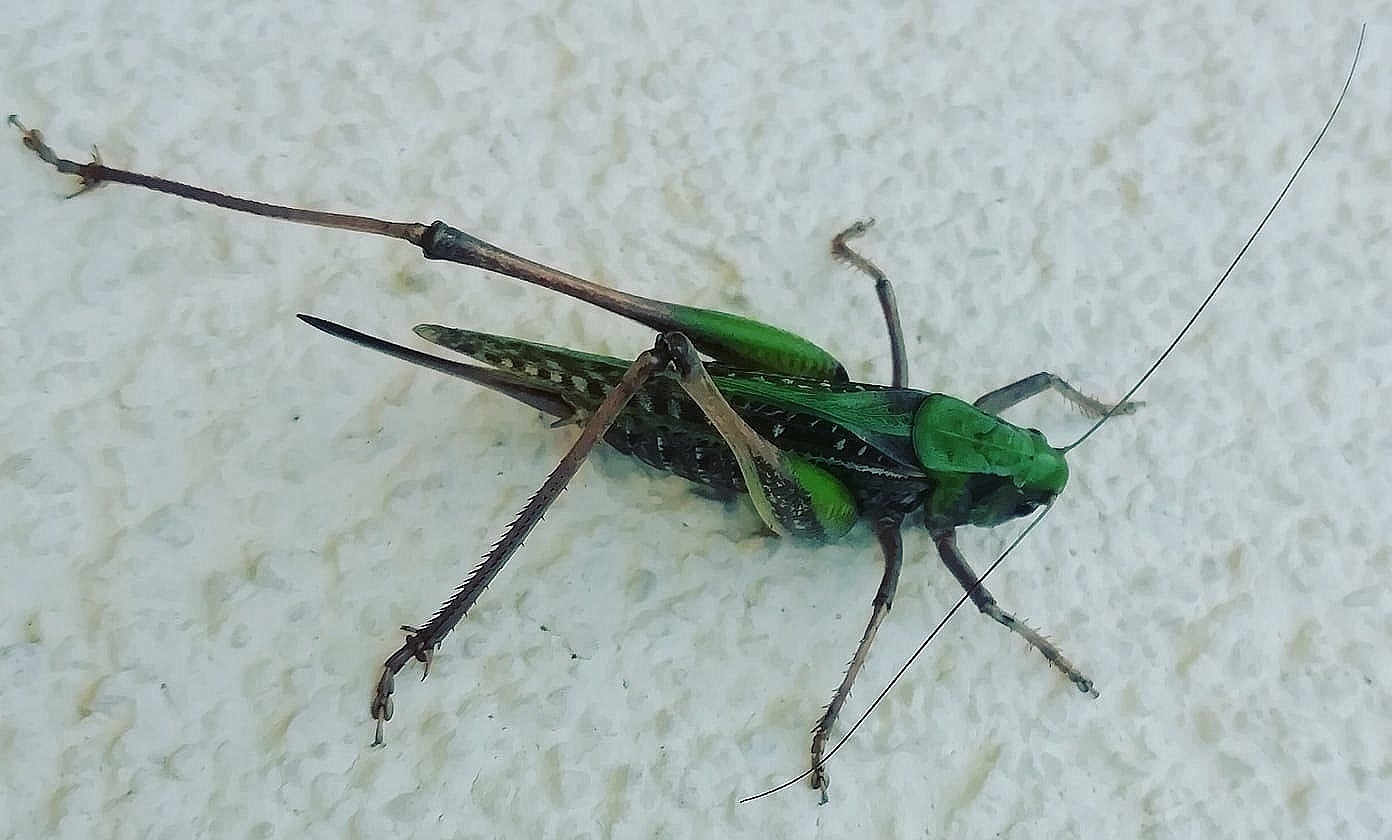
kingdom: Animalia
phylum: Arthropoda
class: Insecta
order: Orthoptera
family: Tettigoniidae
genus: Decticus
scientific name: Decticus verrucivorus
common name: Wart-biter
